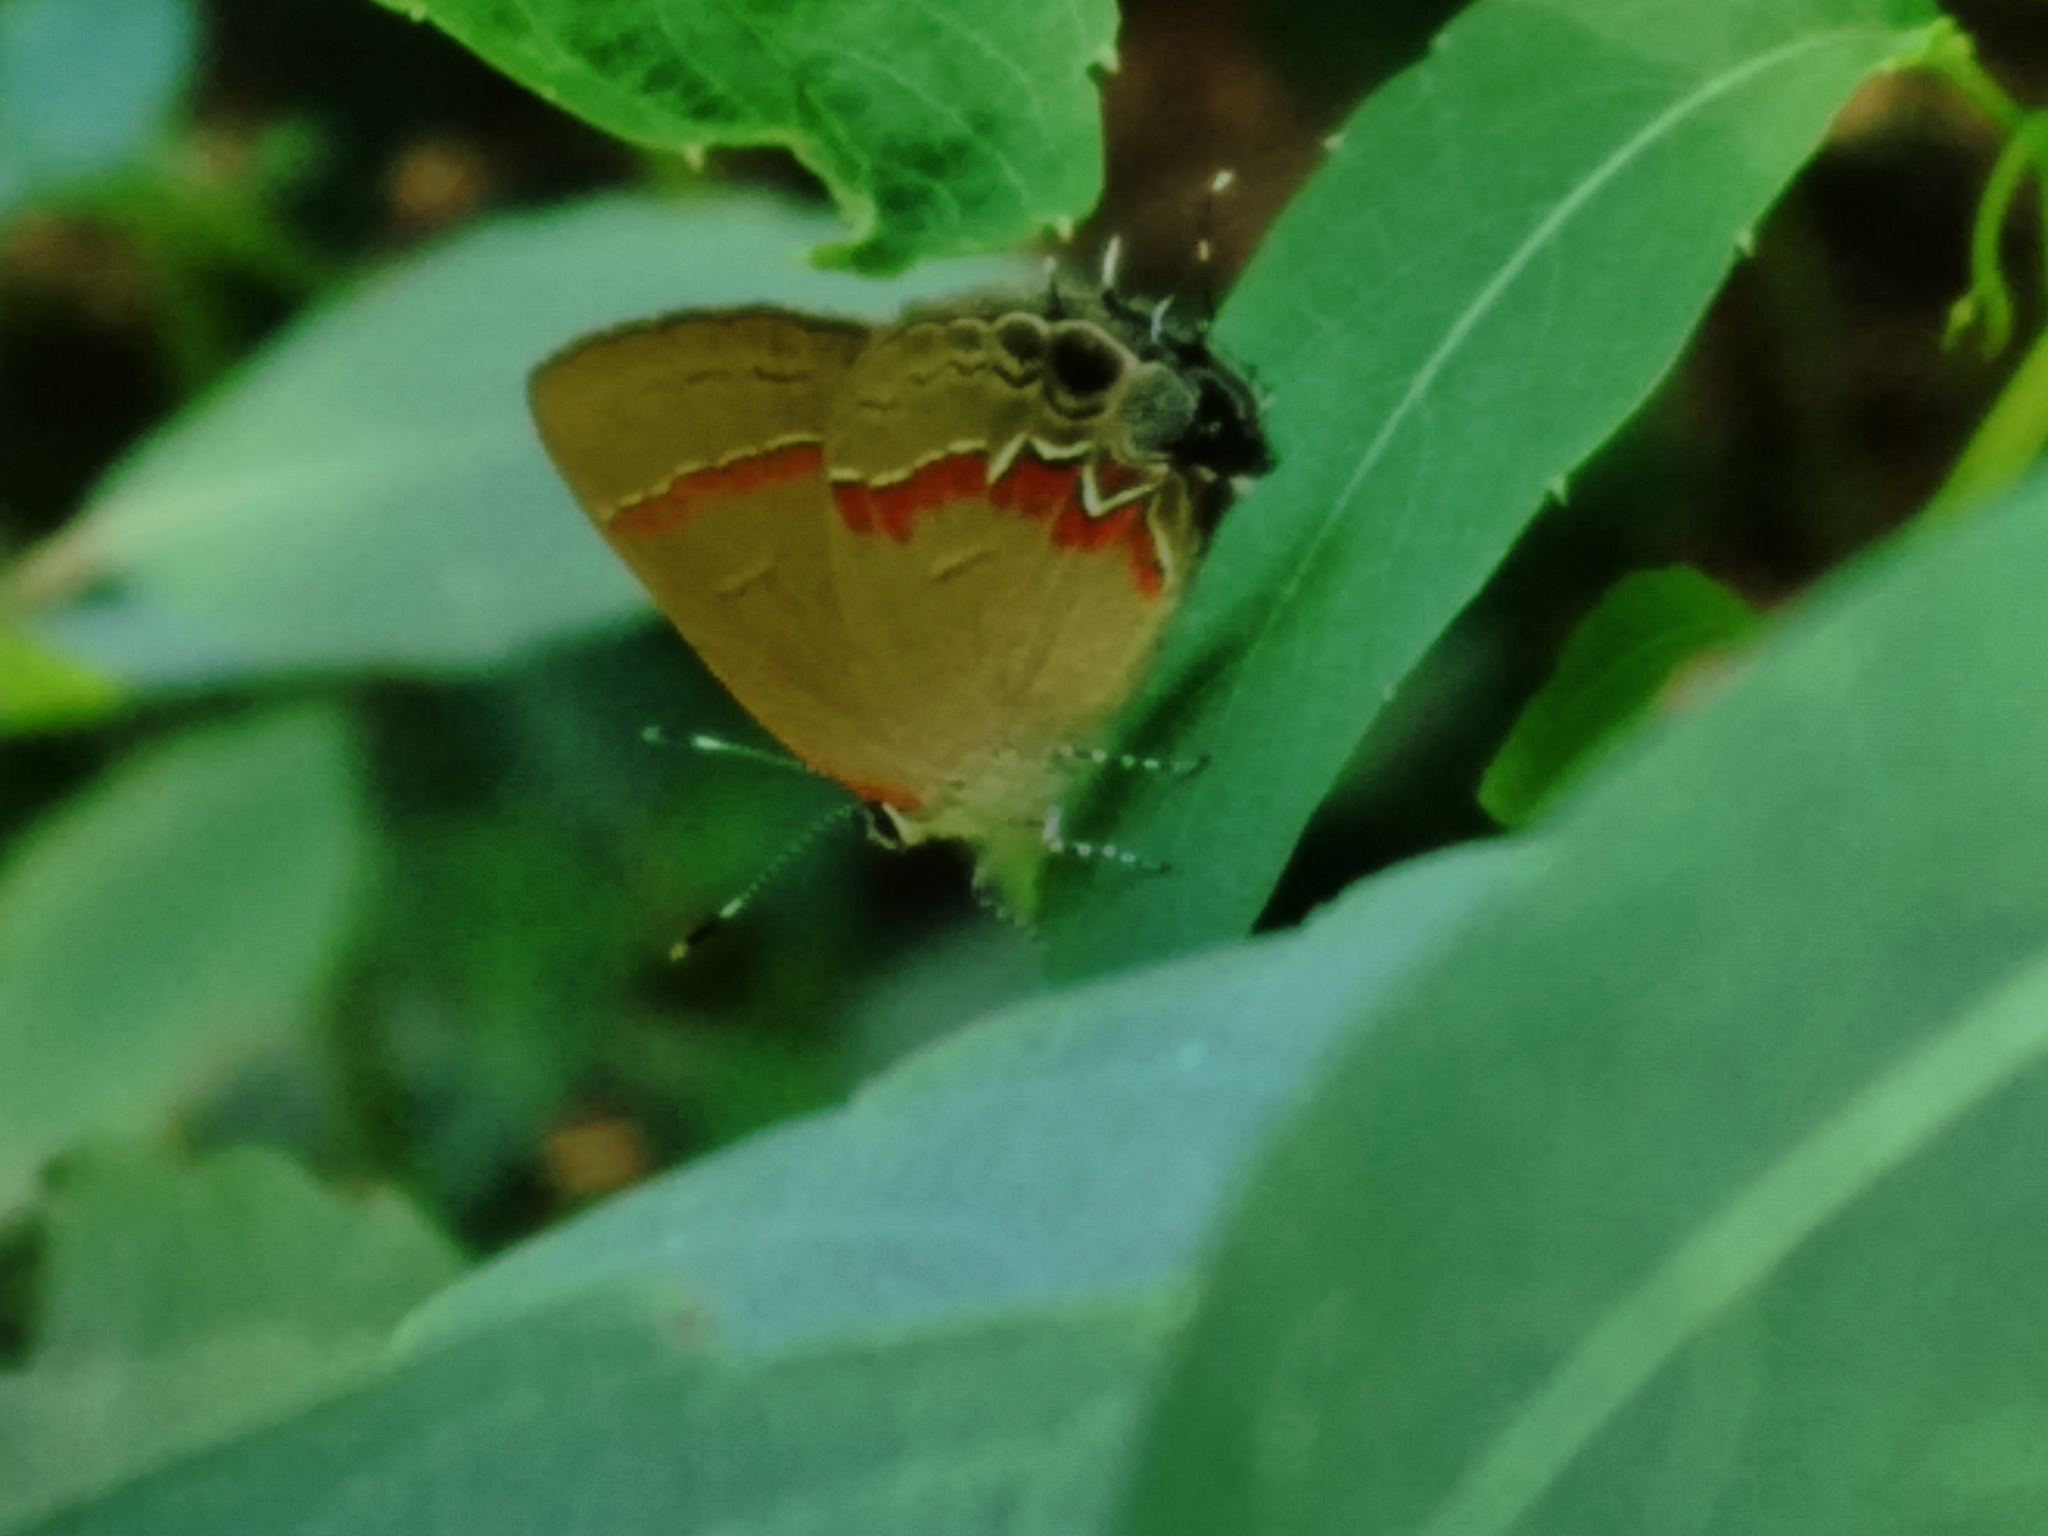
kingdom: Animalia
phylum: Arthropoda
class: Insecta
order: Lepidoptera
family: Lycaenidae
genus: Calycopis
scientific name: Calycopis cecrops
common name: Red-banded hairstreak
